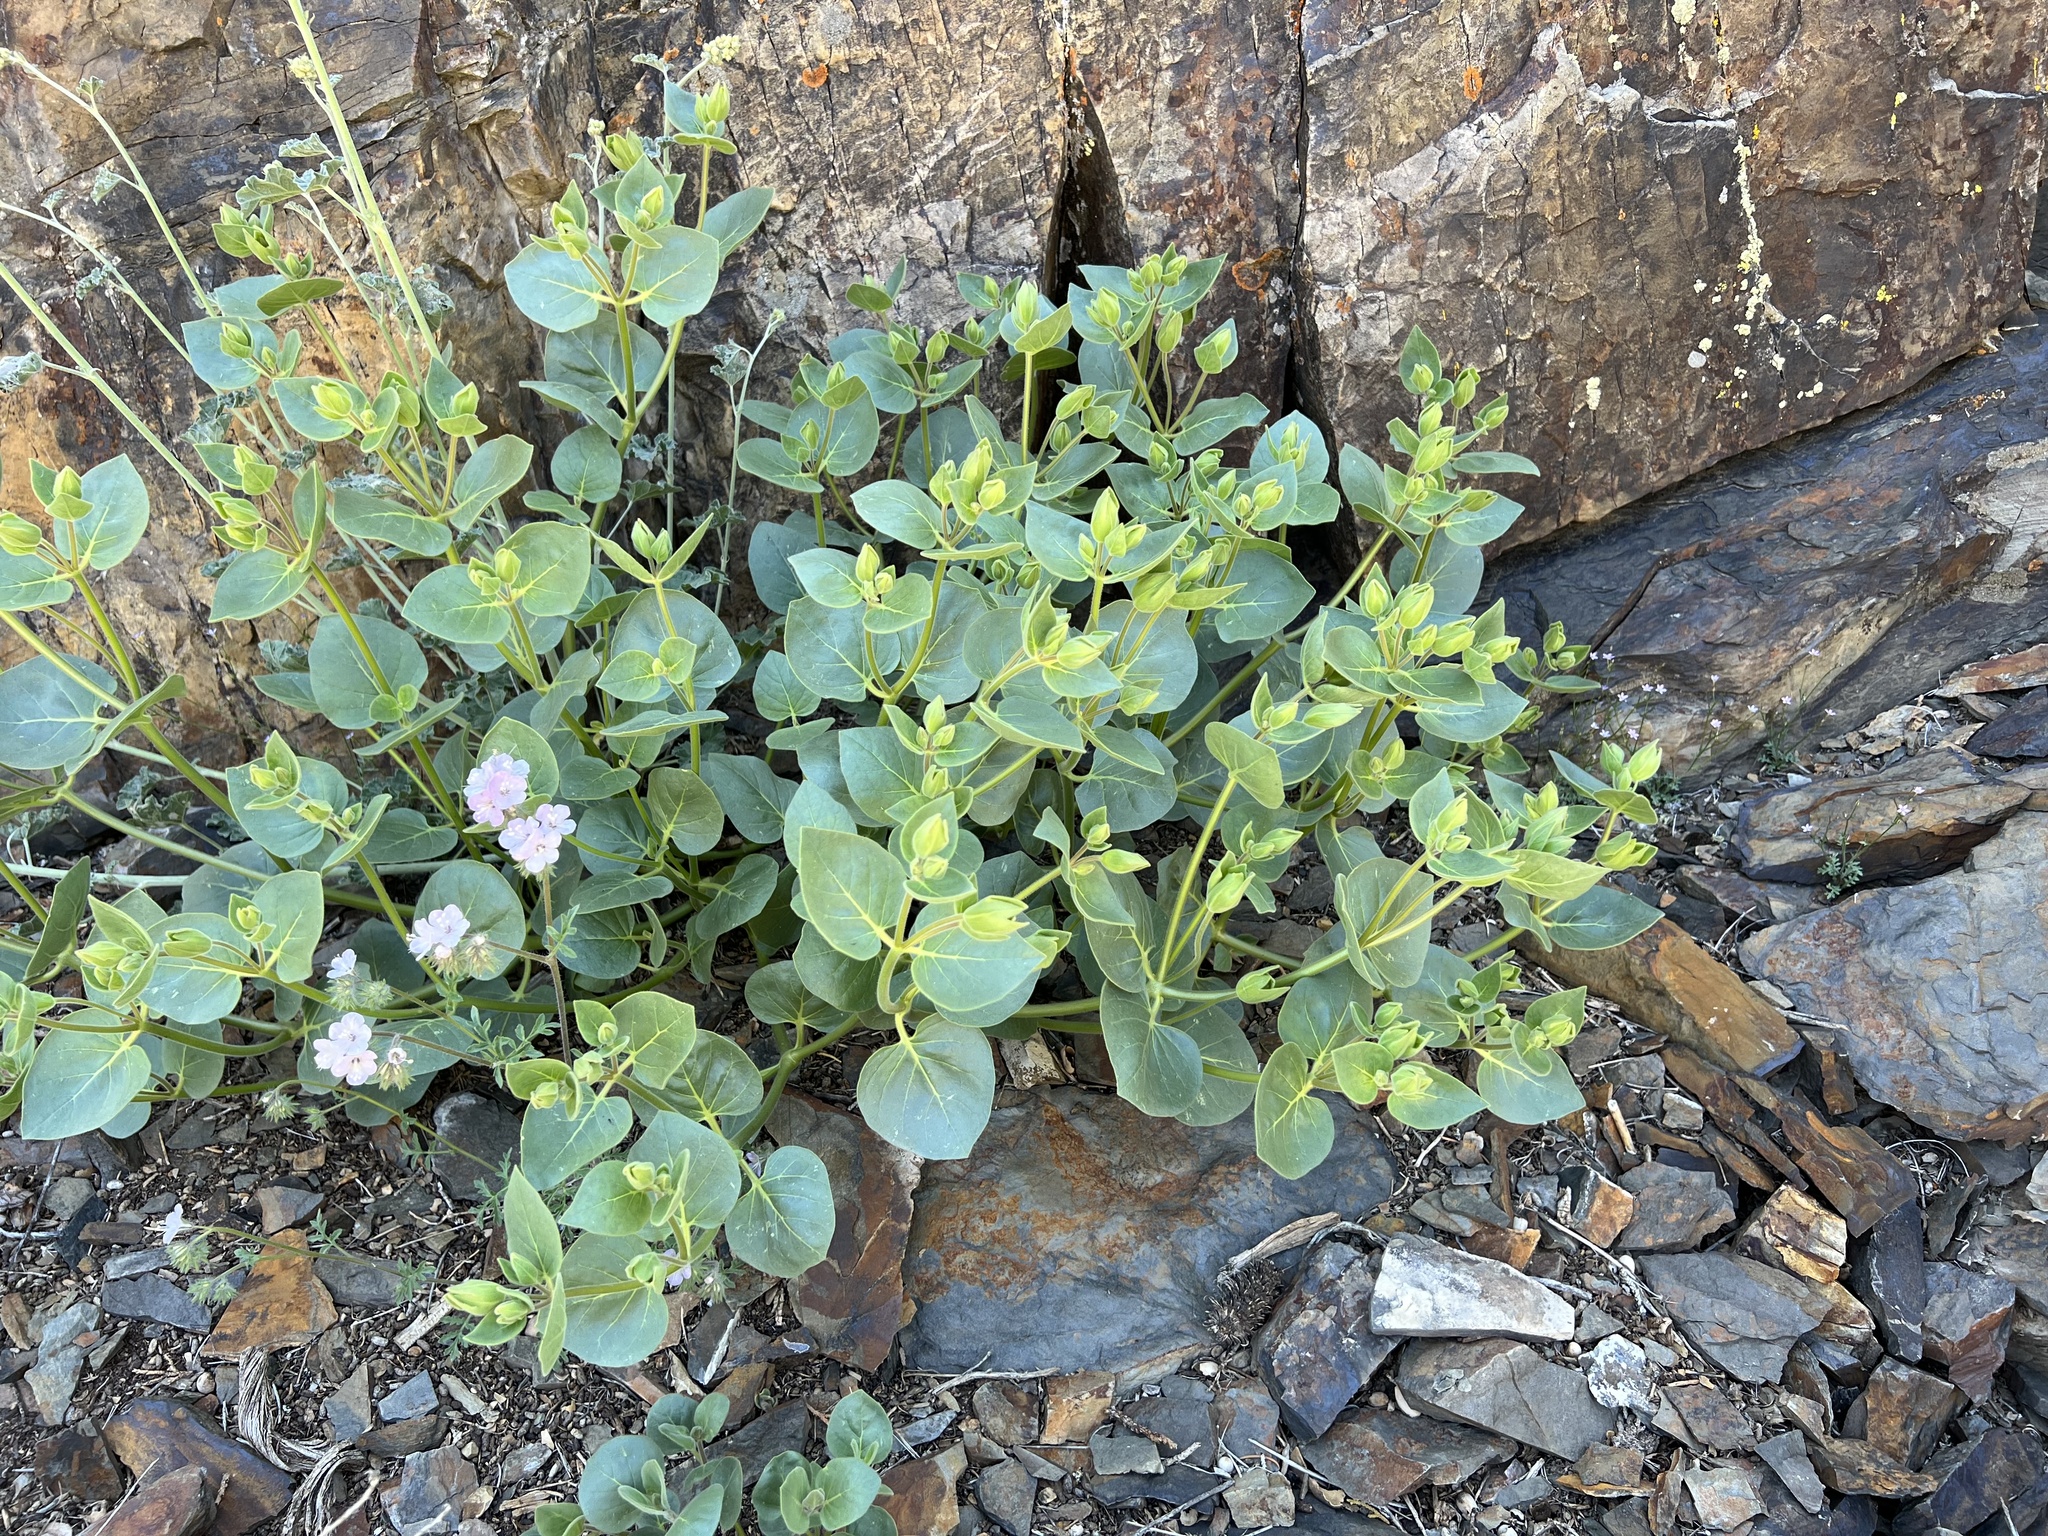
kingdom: Plantae
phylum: Tracheophyta
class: Magnoliopsida
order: Caryophyllales
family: Nyctaginaceae
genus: Mirabilis
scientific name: Mirabilis multiflora
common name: Froebel's four-o'clock
